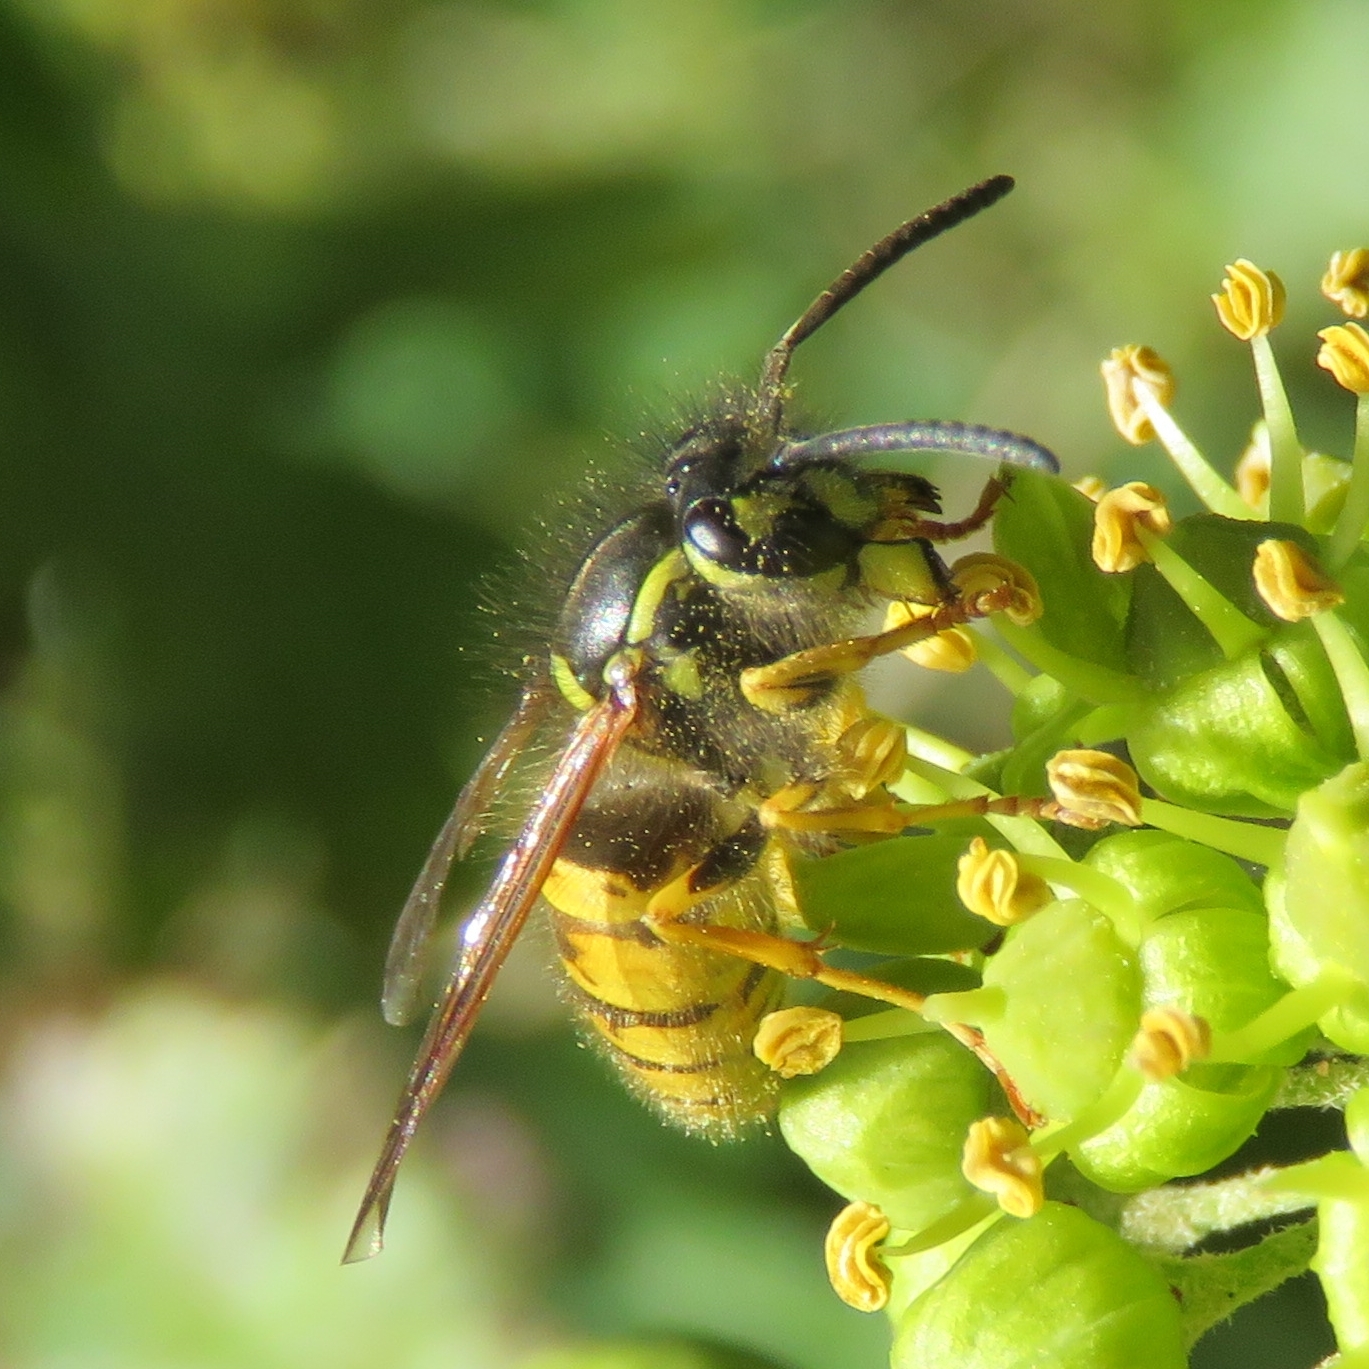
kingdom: Animalia
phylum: Arthropoda
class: Insecta
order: Hymenoptera
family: Vespidae
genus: Vespula
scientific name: Vespula vulgaris
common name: Common wasp
